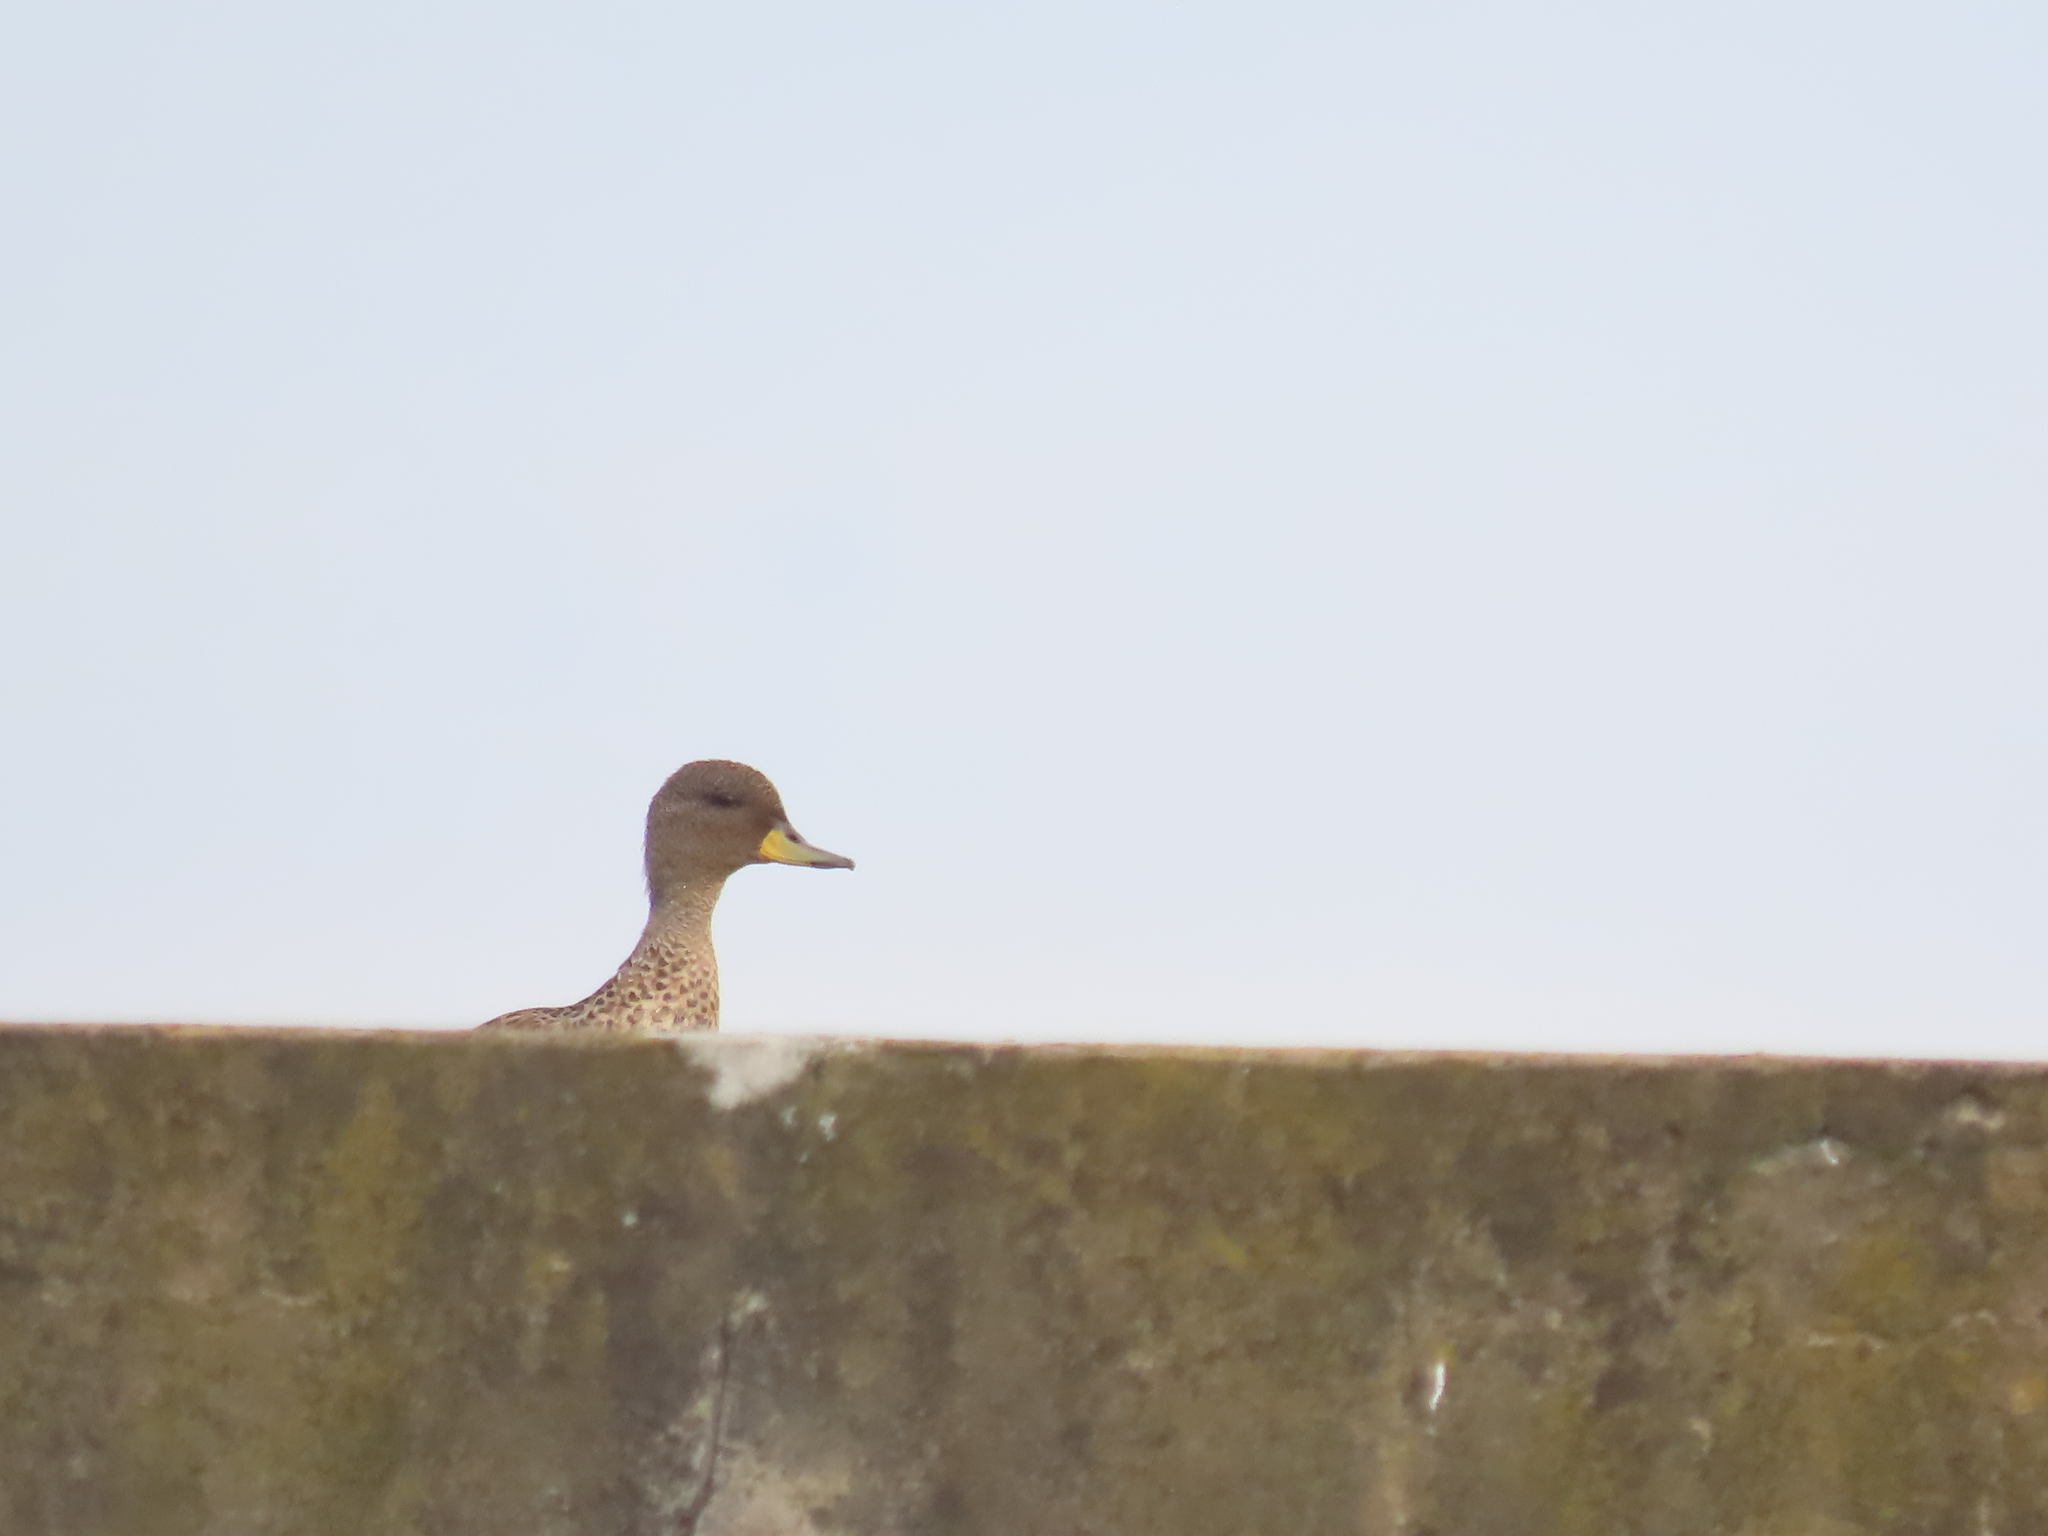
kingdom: Animalia
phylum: Chordata
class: Aves
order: Anseriformes
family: Anatidae
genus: Anas
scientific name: Anas flavirostris
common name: Yellow-billed teal
